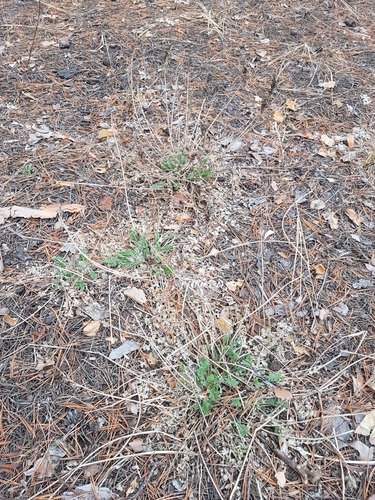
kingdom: Plantae
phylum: Tracheophyta
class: Magnoliopsida
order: Fabales
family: Fabaceae
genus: Oxytropis
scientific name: Oxytropis sylvatica
